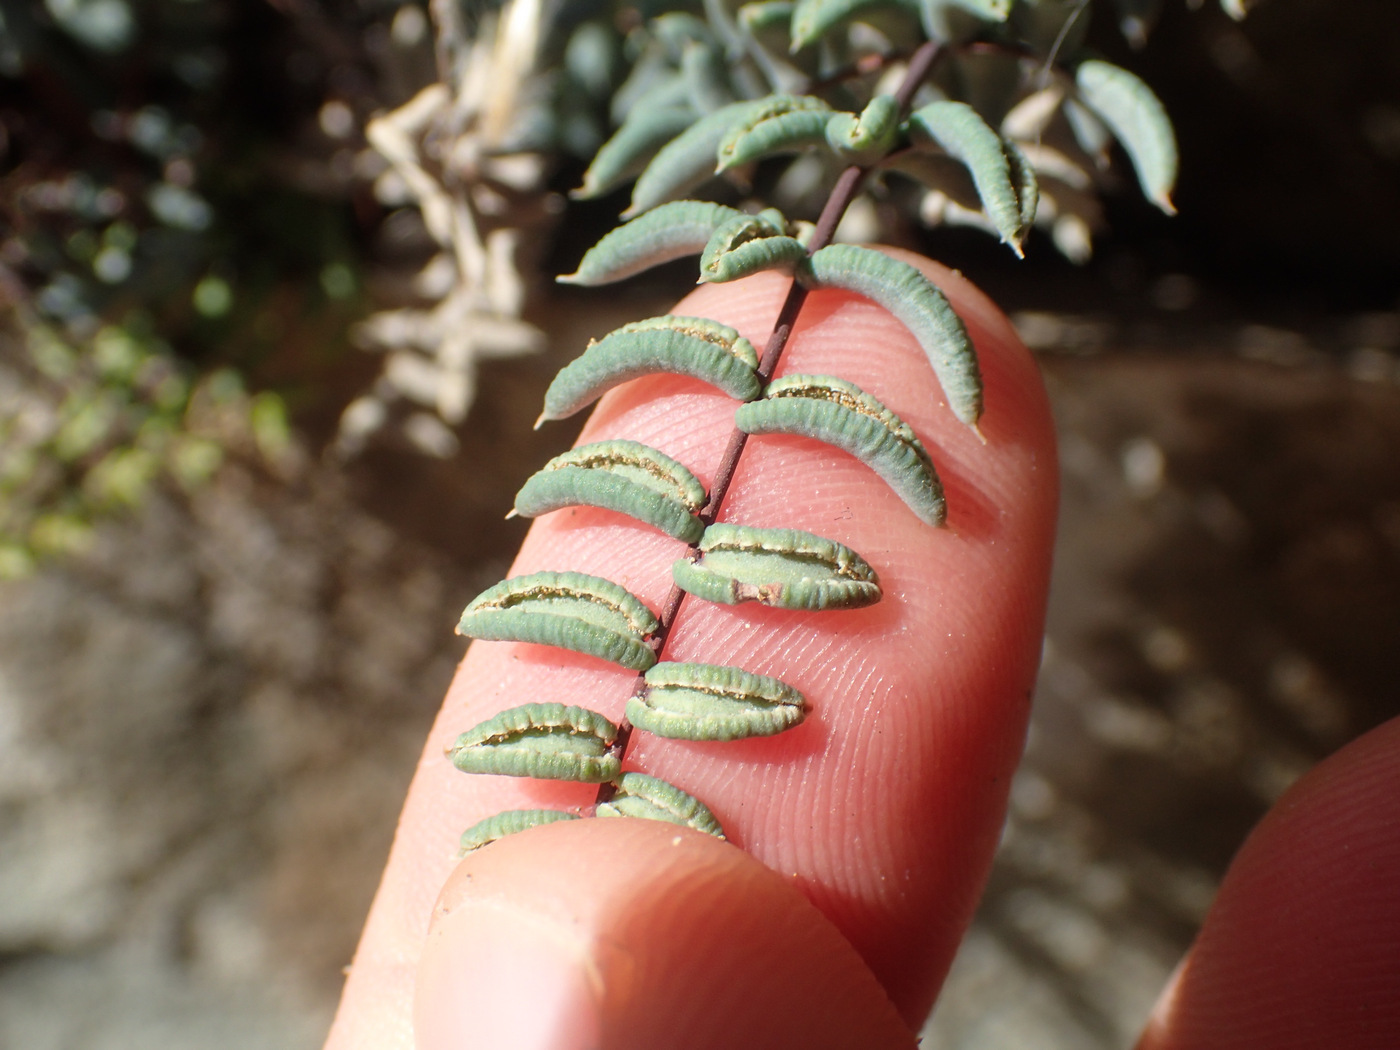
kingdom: Plantae
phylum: Tracheophyta
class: Polypodiopsida
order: Polypodiales
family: Pteridaceae
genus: Pellaea
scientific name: Pellaea truncata
